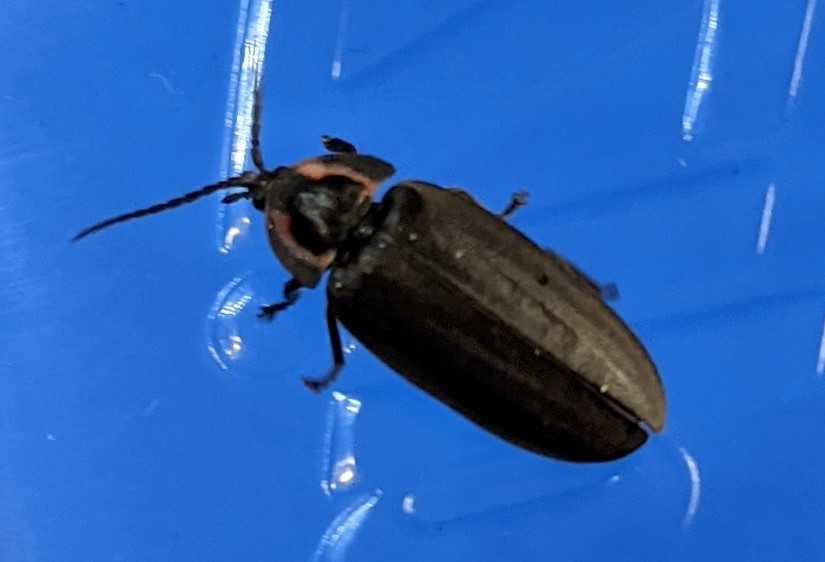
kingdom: Animalia
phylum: Arthropoda
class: Insecta
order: Coleoptera
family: Lampyridae
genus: Photinus
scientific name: Photinus corrusca
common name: Winter firefly
